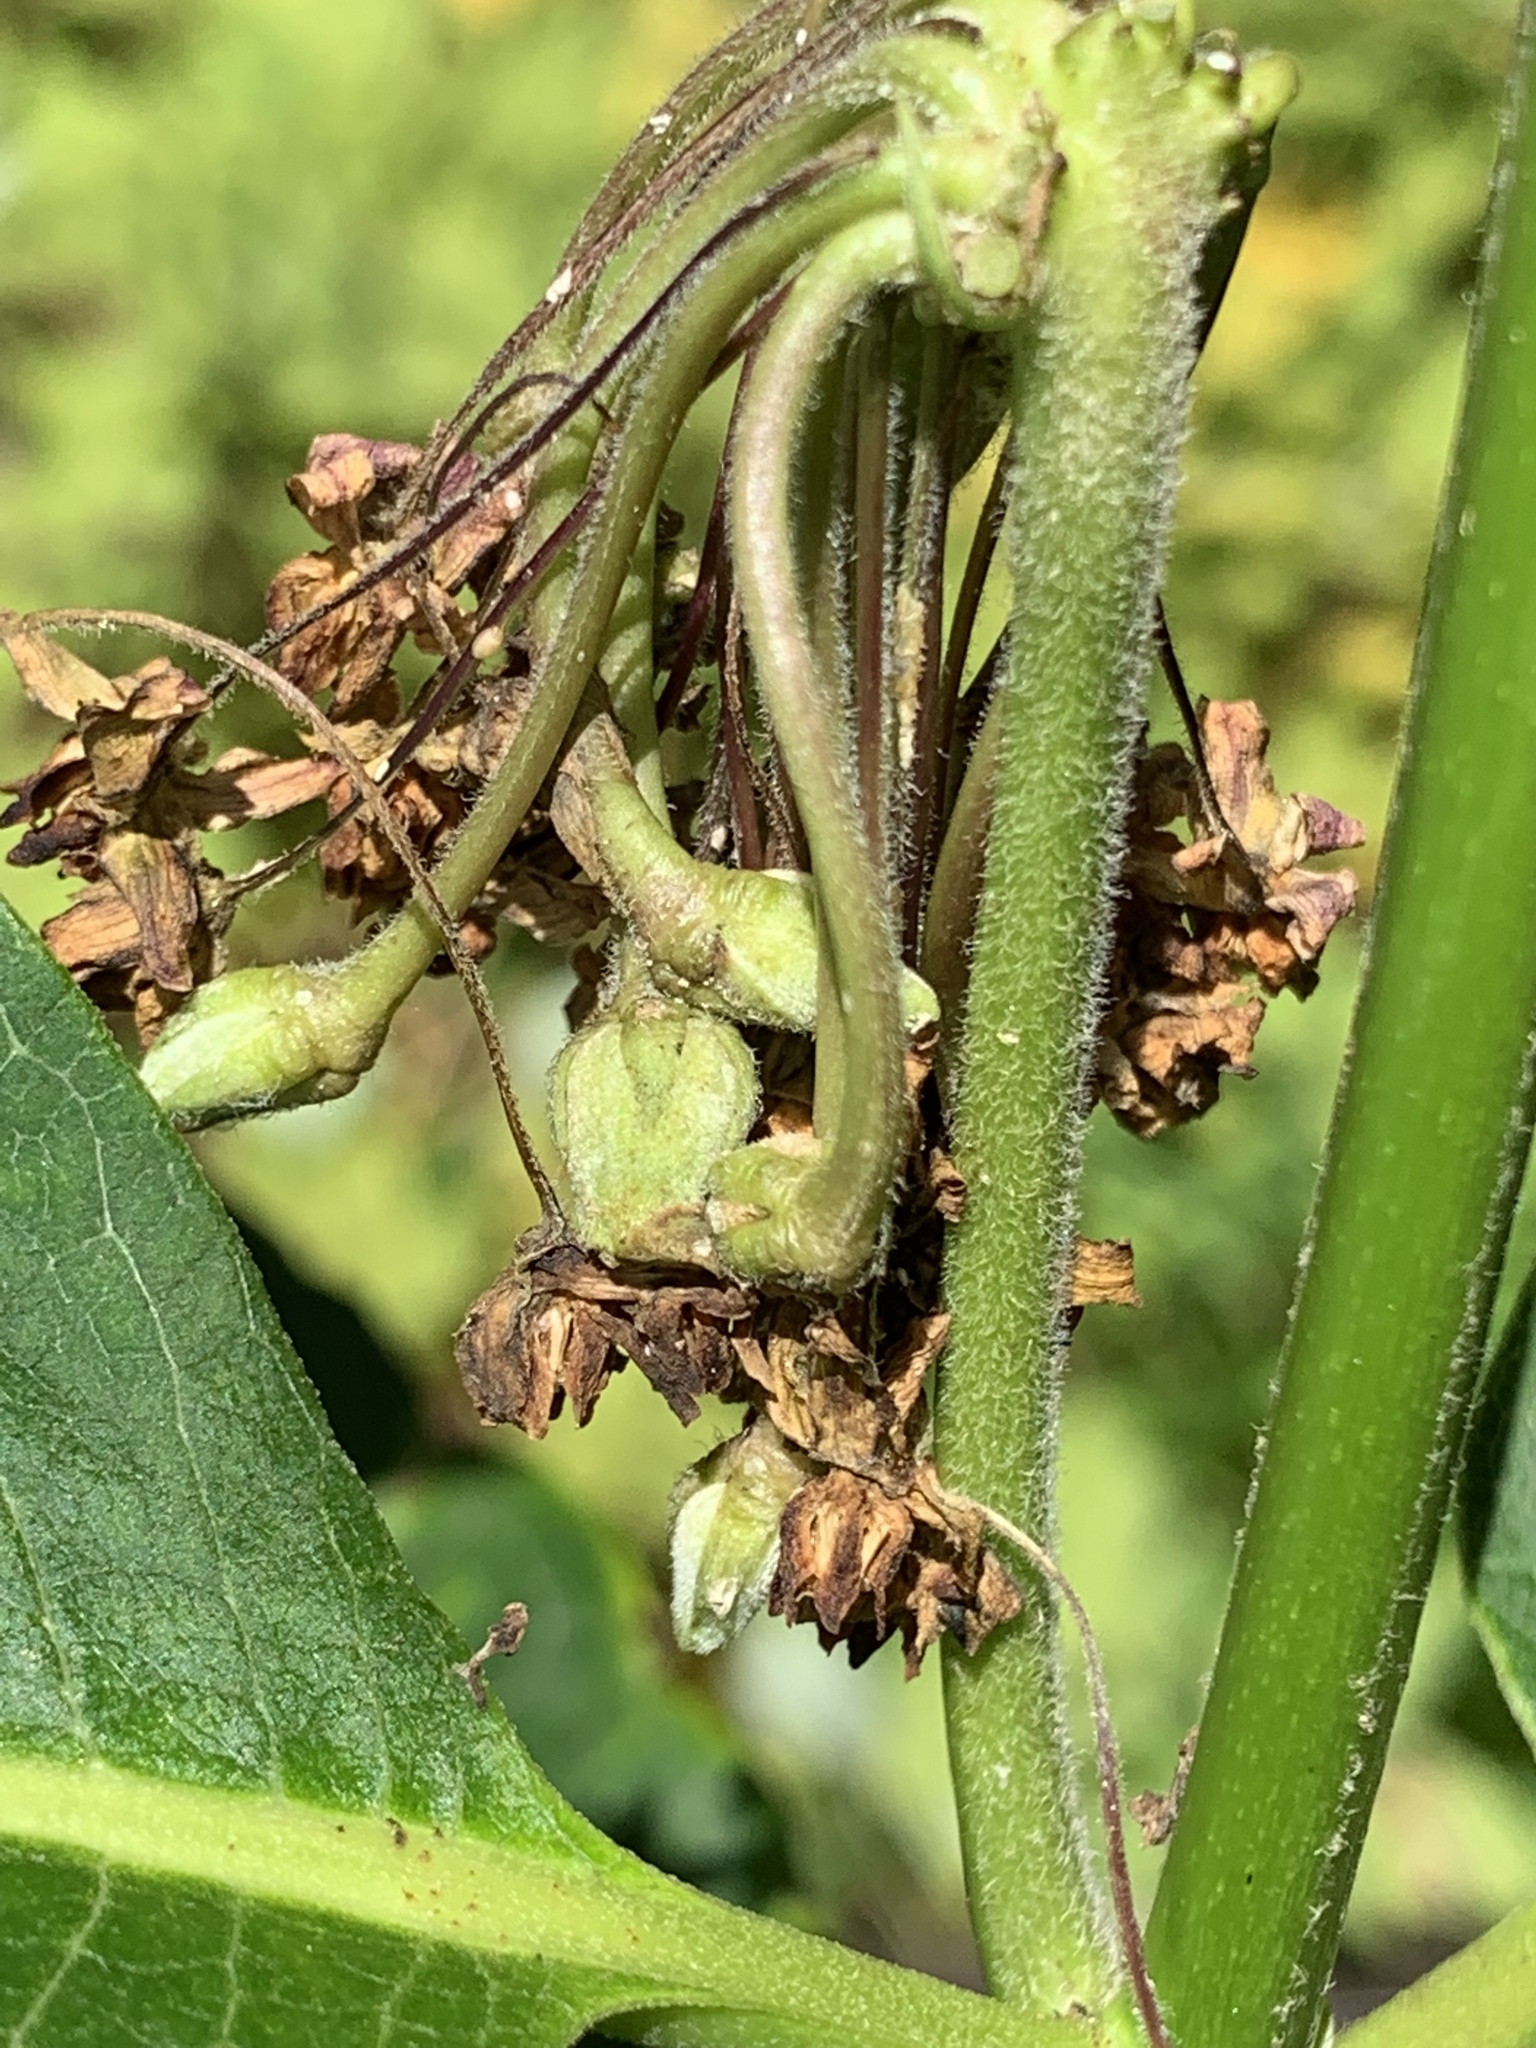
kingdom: Plantae
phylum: Tracheophyta
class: Magnoliopsida
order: Gentianales
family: Apocynaceae
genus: Asclepias
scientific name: Asclepias syriaca
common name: Common milkweed
